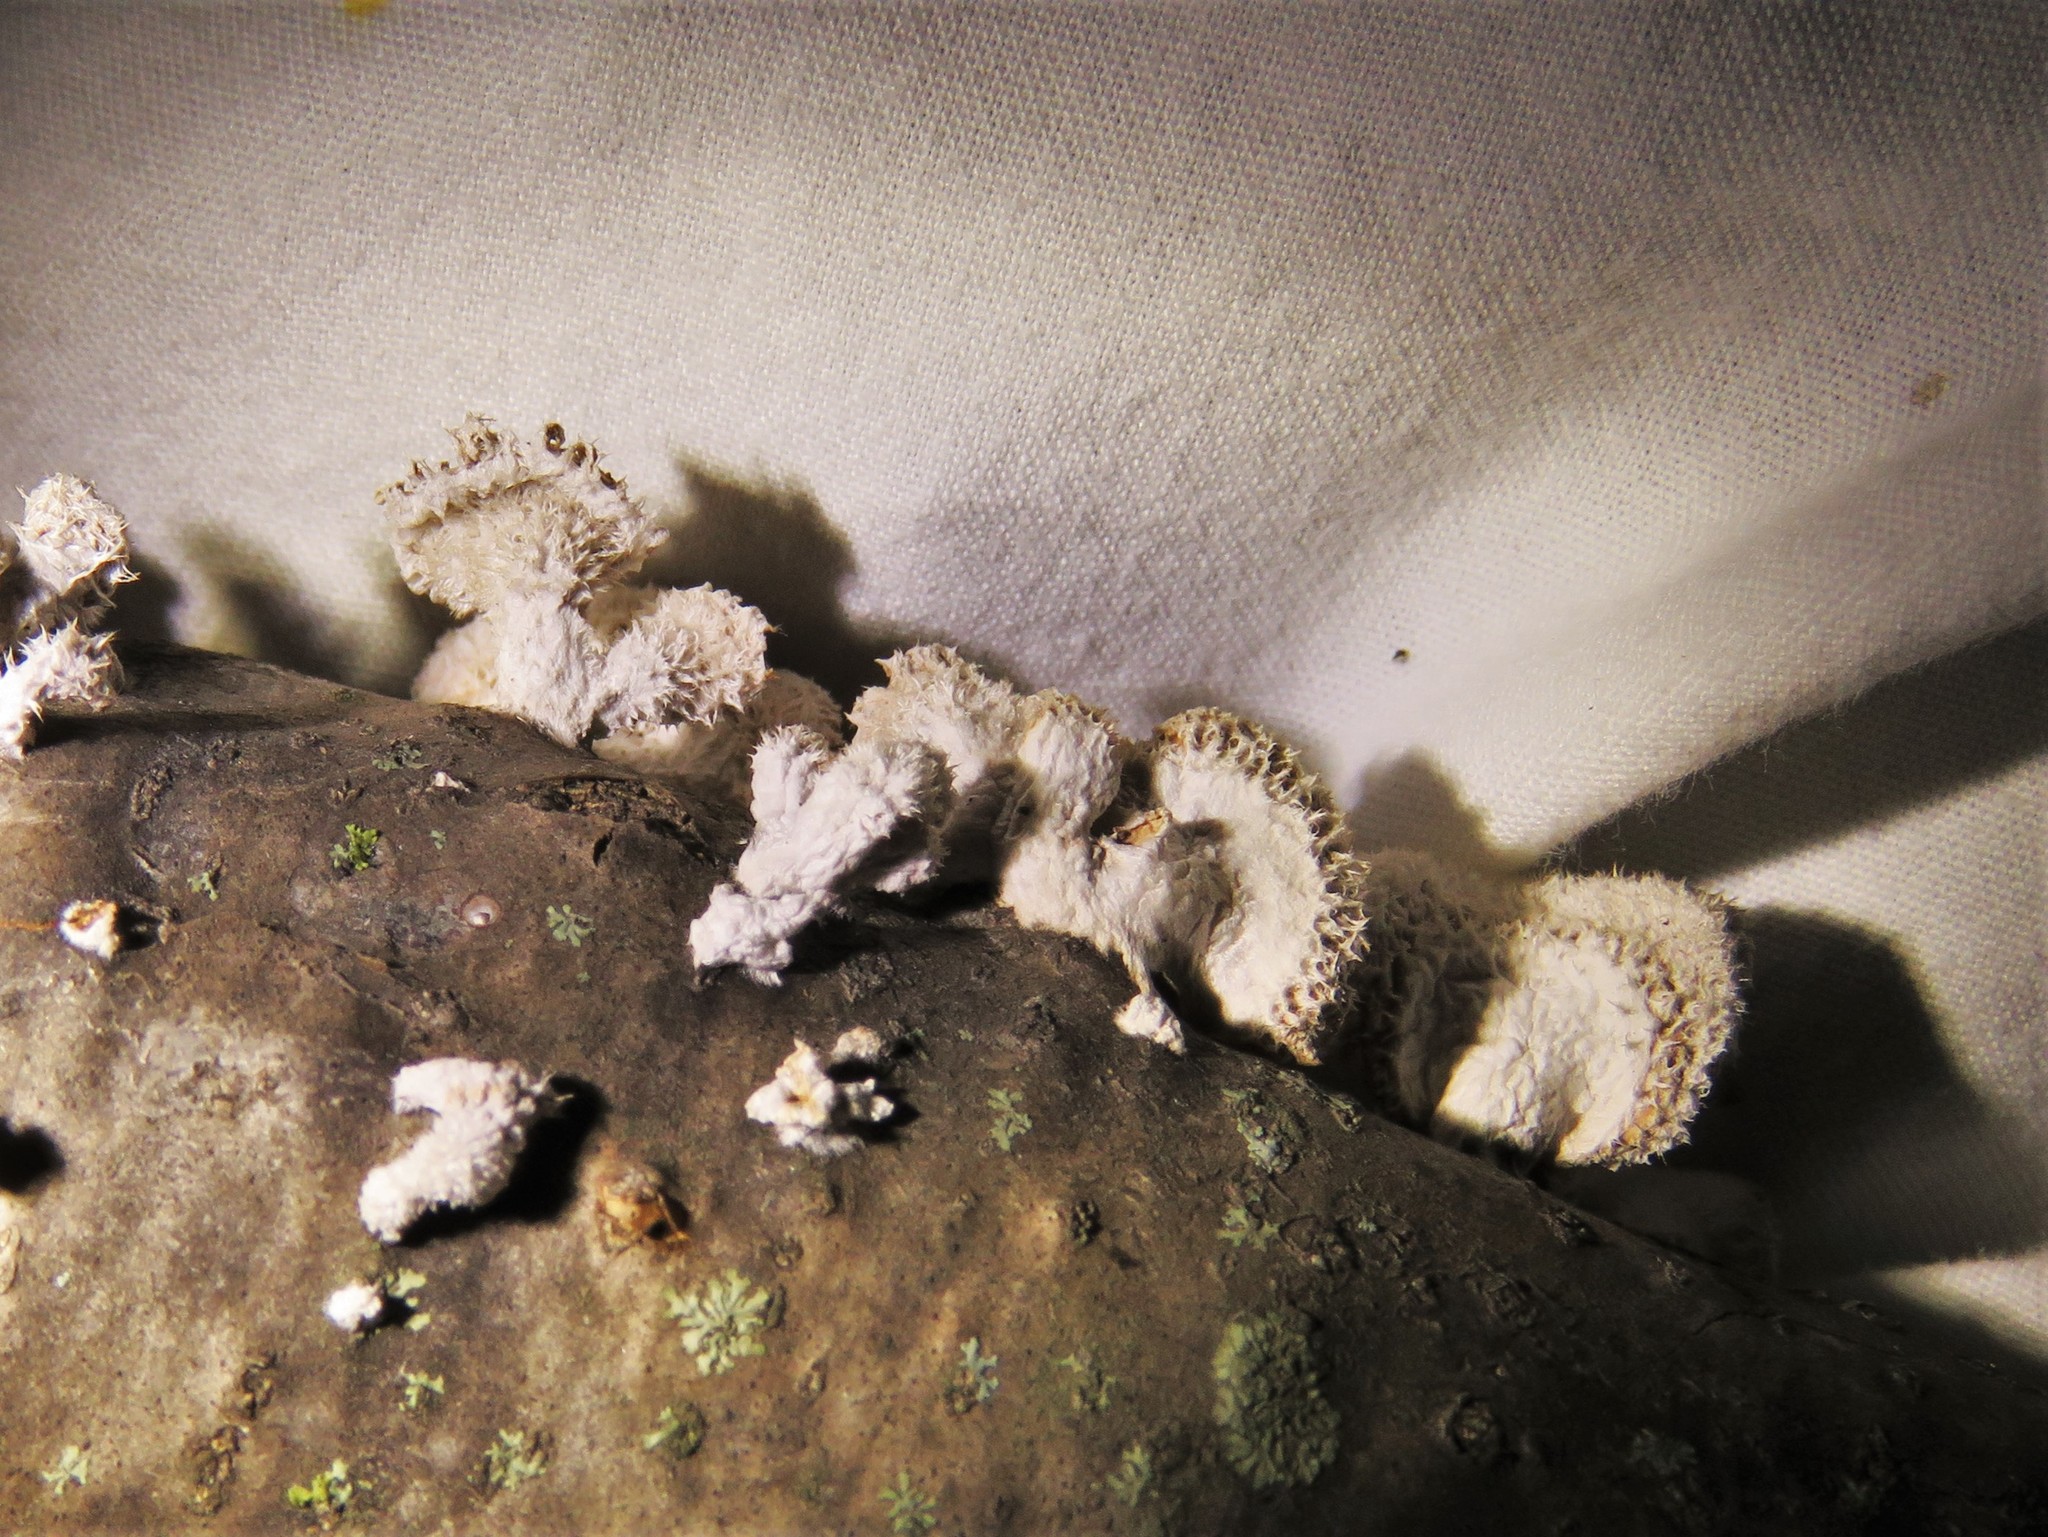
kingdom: Fungi
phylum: Basidiomycota
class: Agaricomycetes
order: Agaricales
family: Schizophyllaceae
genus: Schizophyllum
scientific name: Schizophyllum commune
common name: Common porecrust
